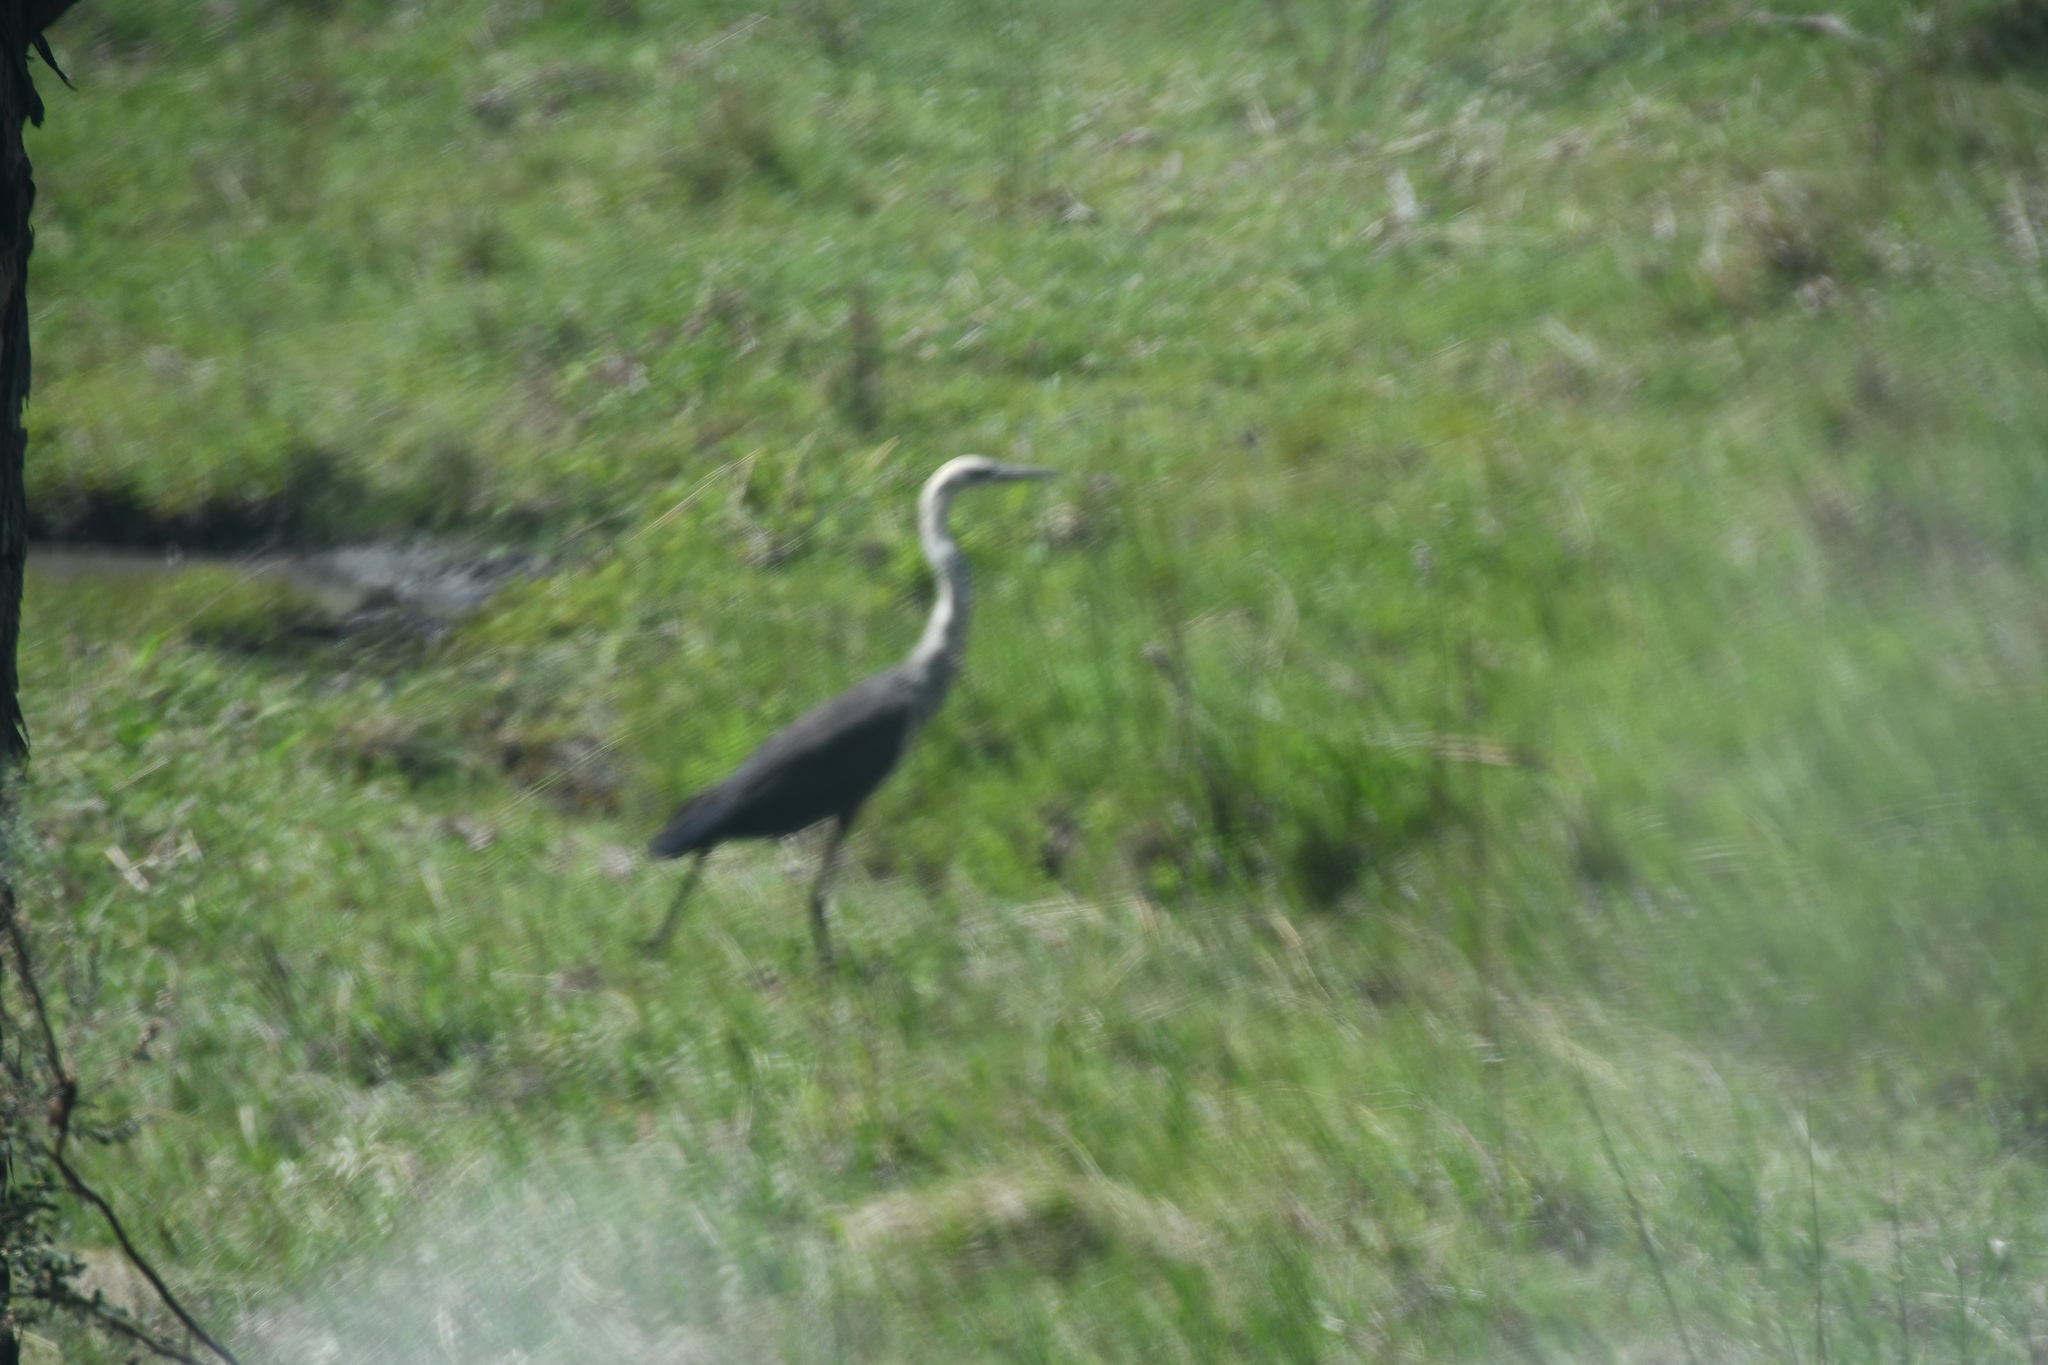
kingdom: Animalia
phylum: Chordata
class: Aves
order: Pelecaniformes
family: Ardeidae
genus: Ardea
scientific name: Ardea pacifica
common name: White-necked heron
